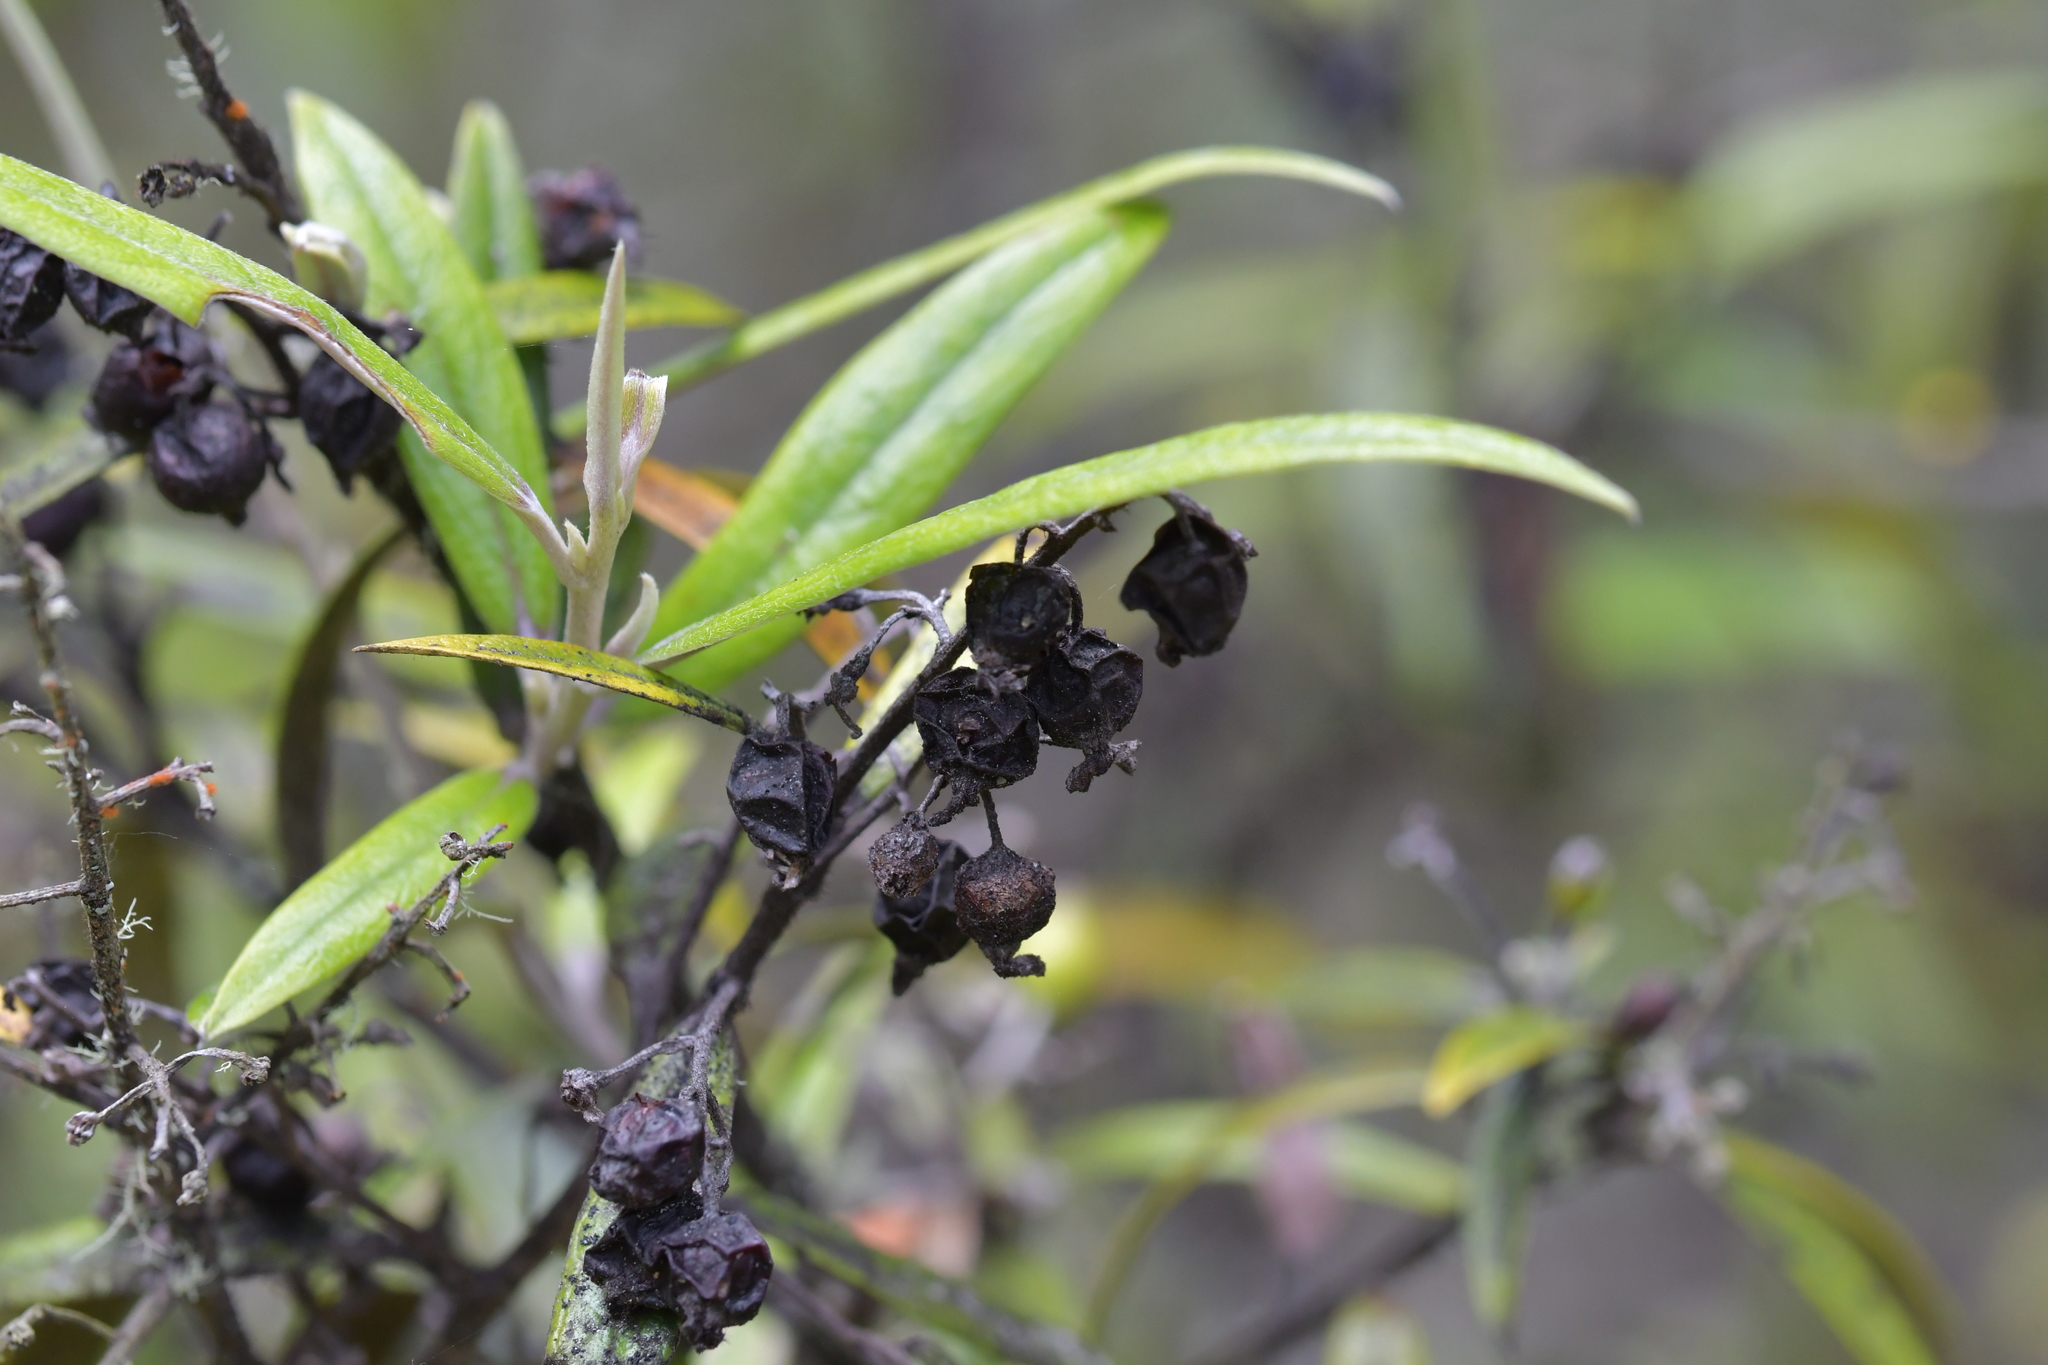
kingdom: Plantae
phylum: Tracheophyta
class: Magnoliopsida
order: Asterales
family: Argophyllaceae
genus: Corokia
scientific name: Corokia buddleioides
